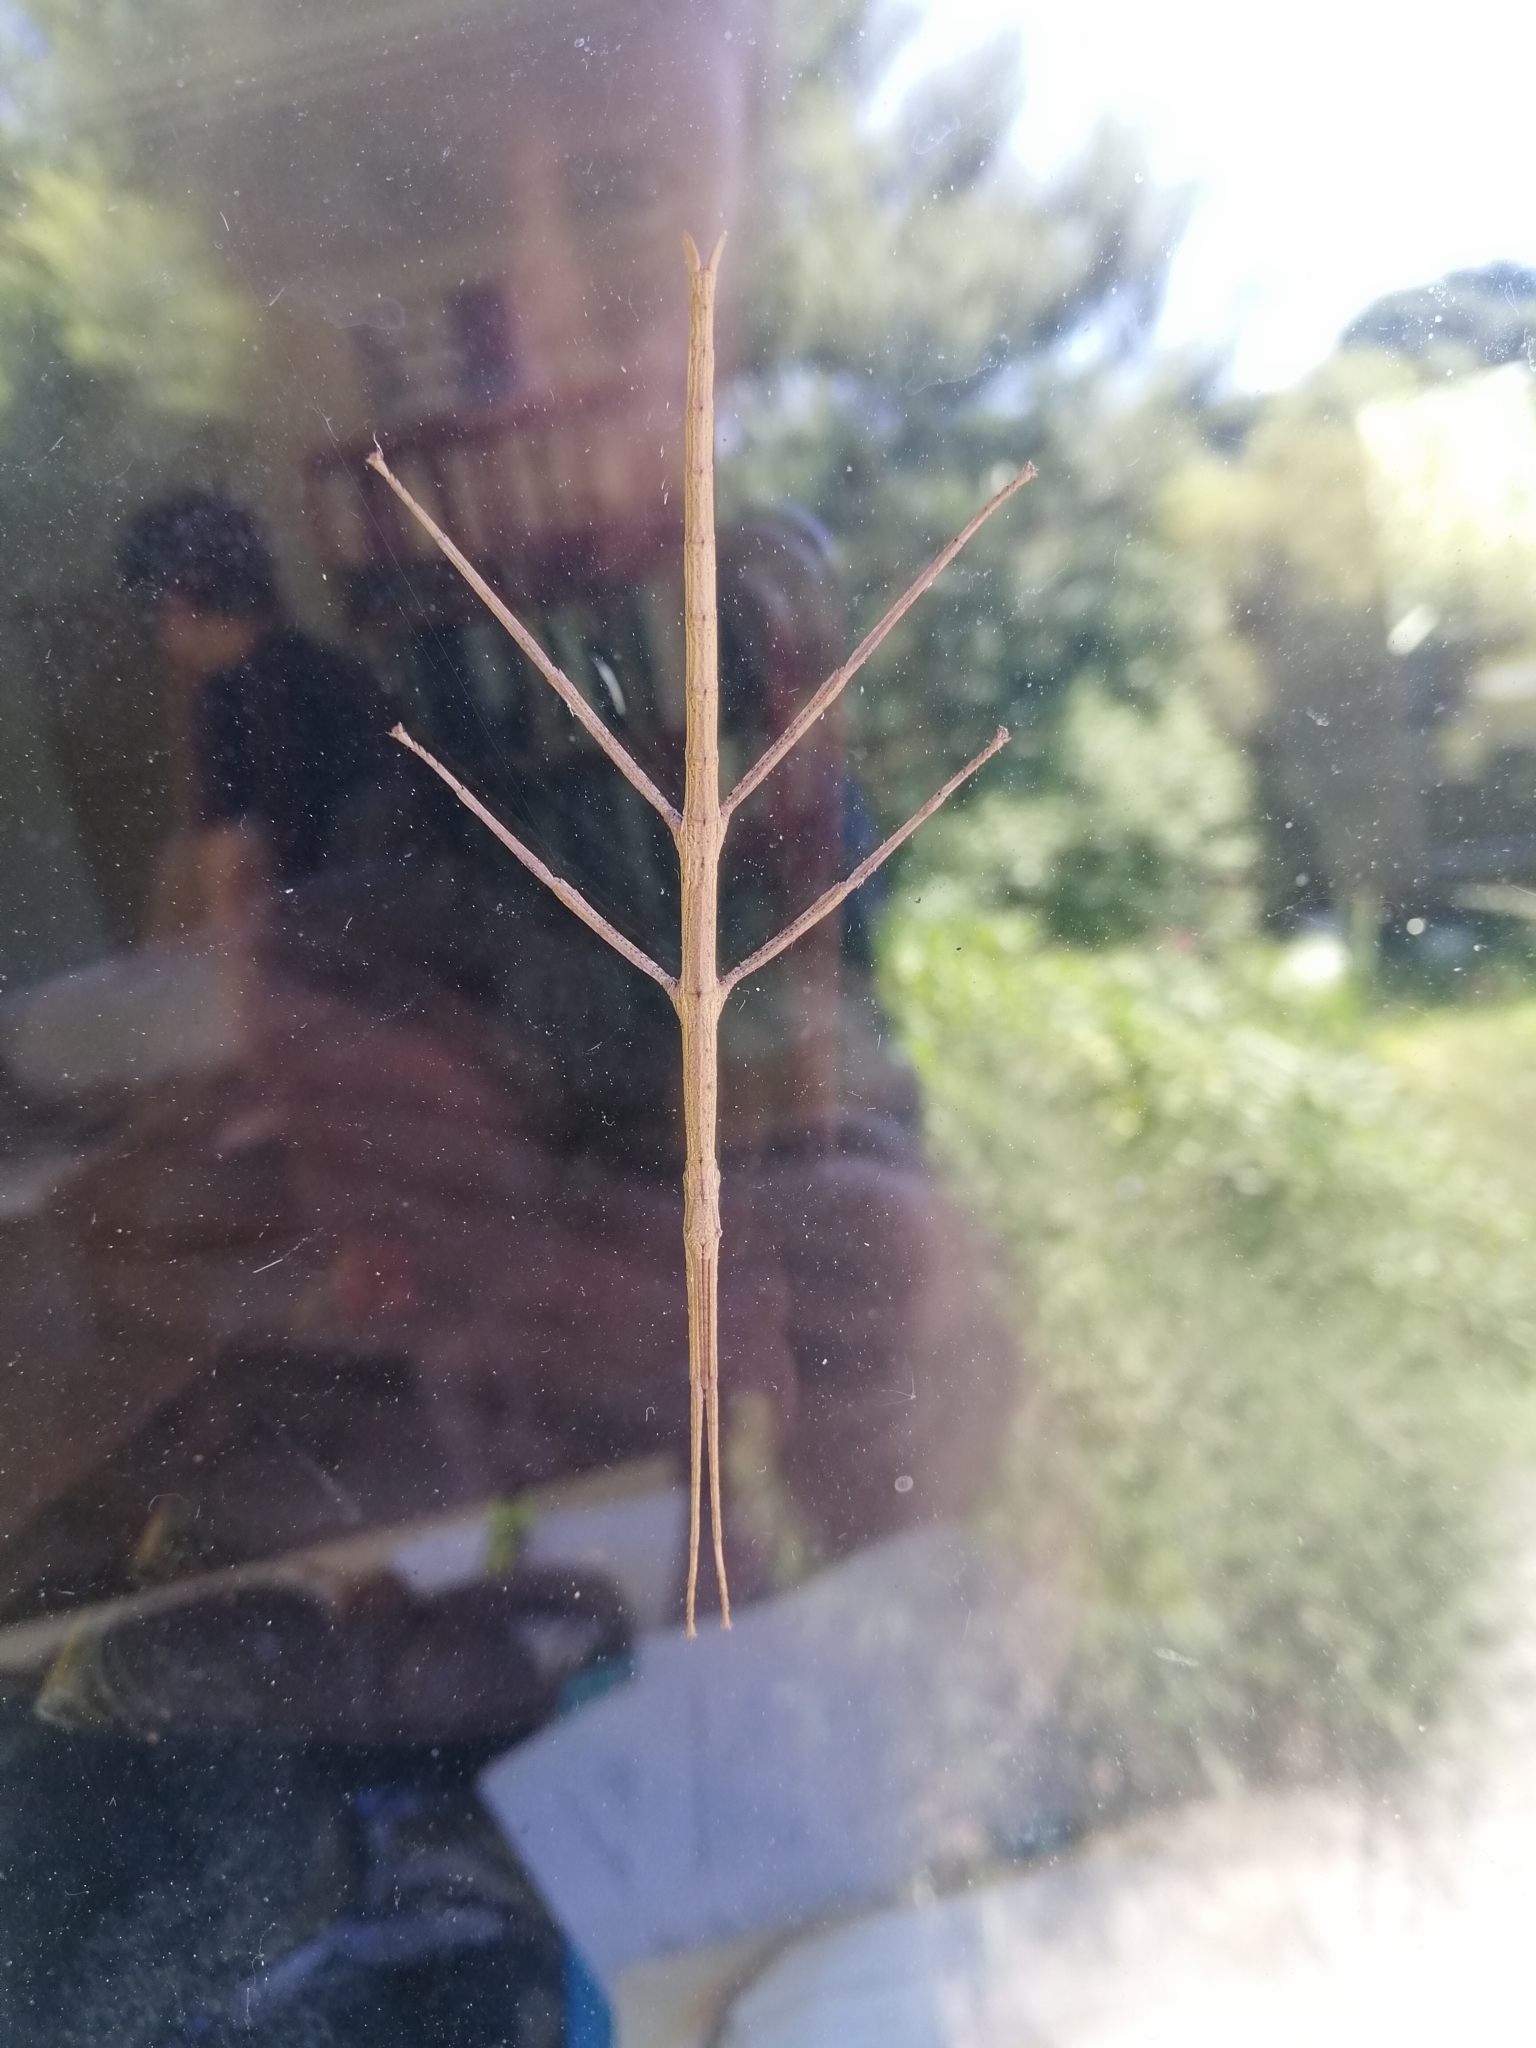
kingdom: Animalia
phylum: Arthropoda
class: Insecta
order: Phasmida
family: Phasmatidae
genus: Clitarchus
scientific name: Clitarchus hookeri
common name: Smooth stick insect
